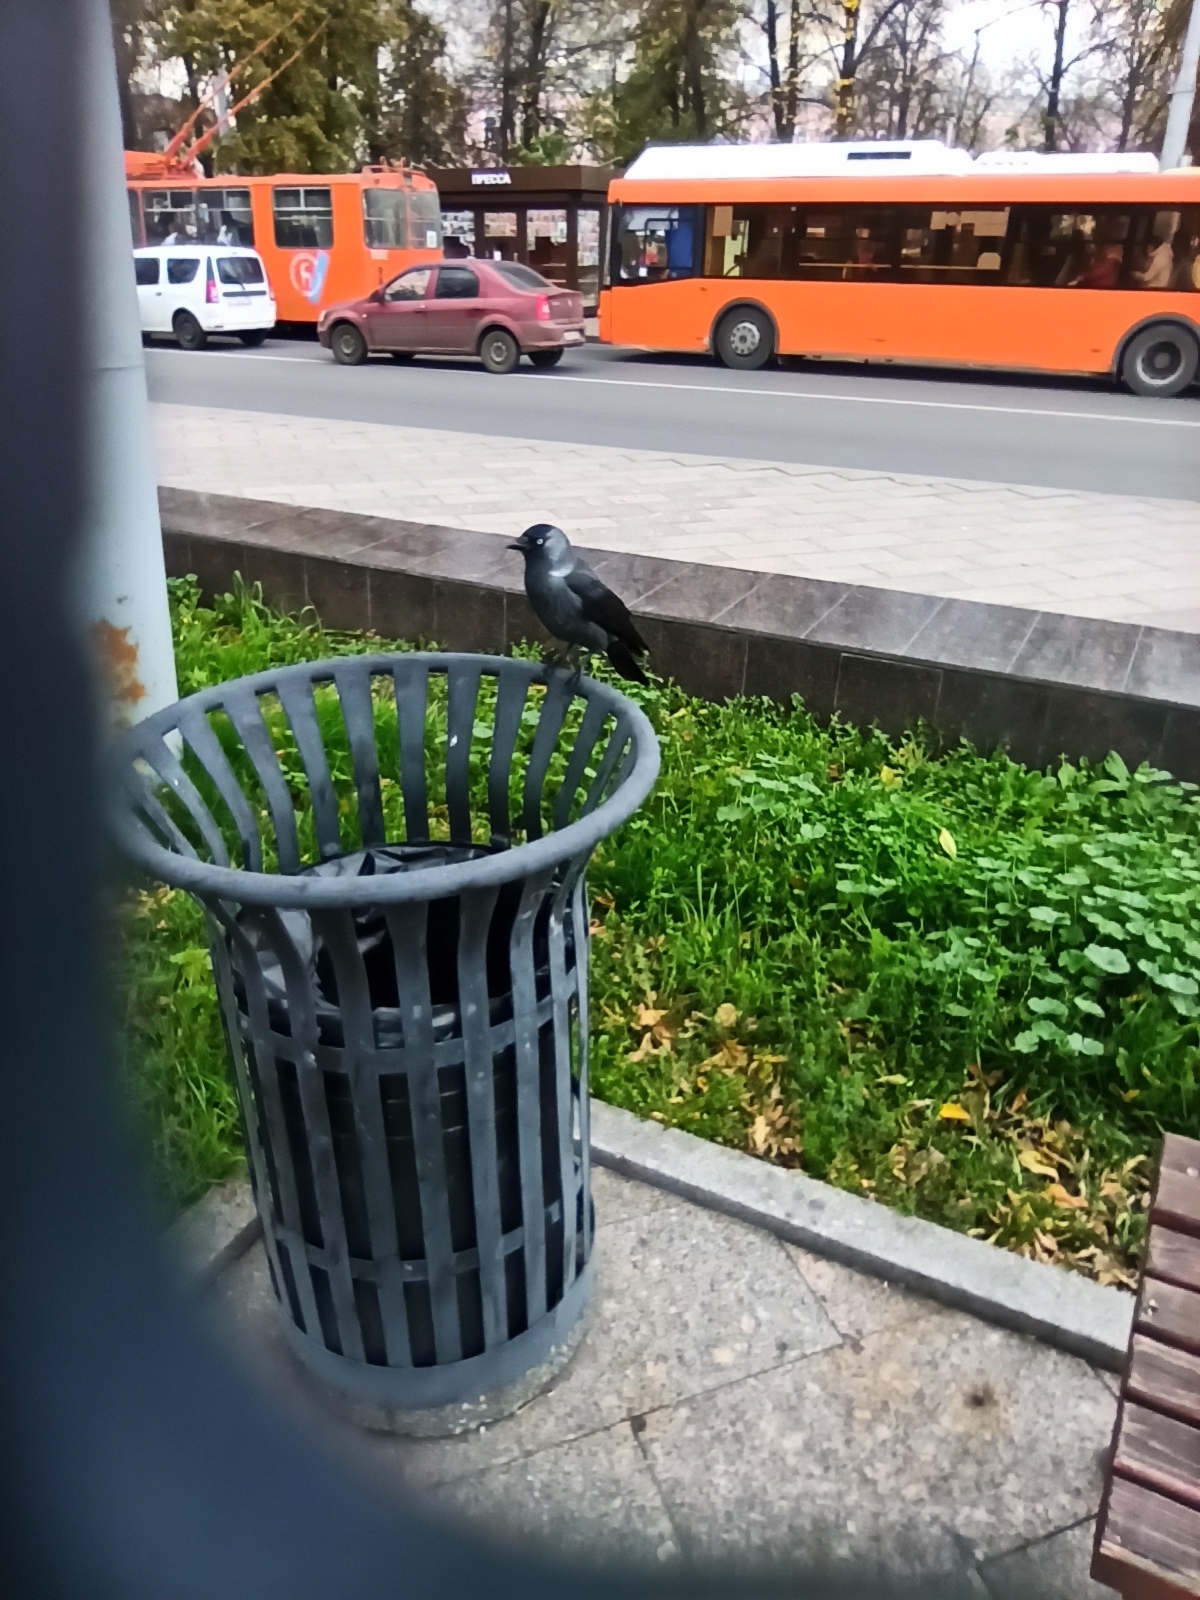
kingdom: Animalia
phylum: Chordata
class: Aves
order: Passeriformes
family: Corvidae
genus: Coloeus
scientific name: Coloeus monedula
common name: Western jackdaw
